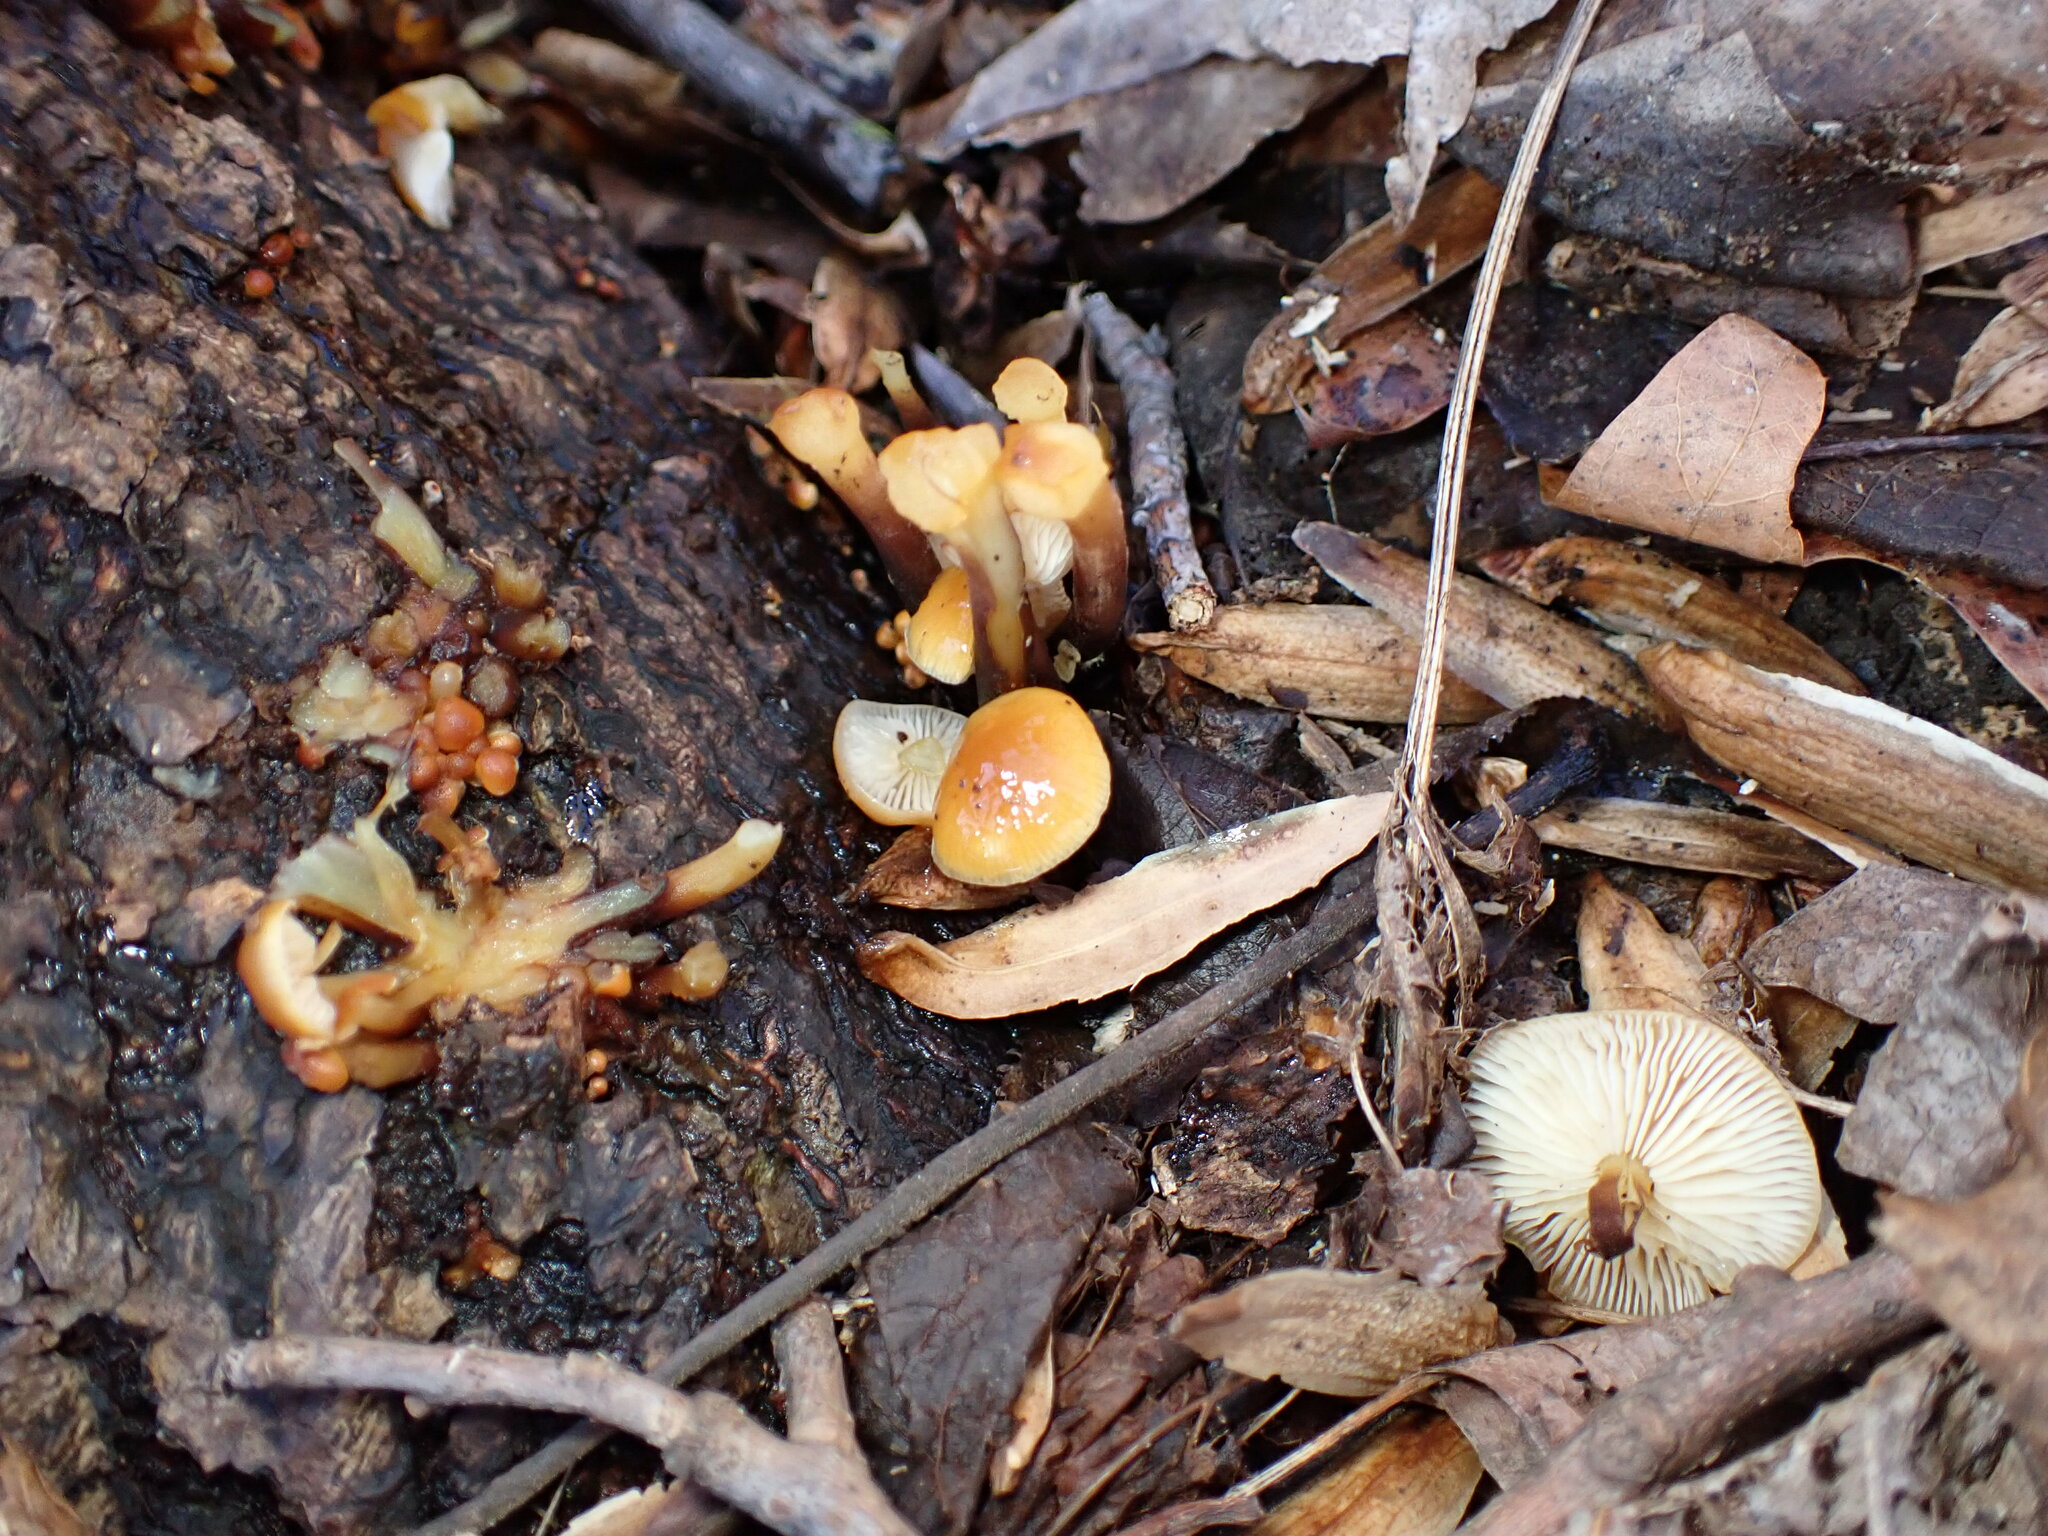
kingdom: Fungi
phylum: Basidiomycota
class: Agaricomycetes
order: Agaricales
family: Physalacriaceae
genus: Flammulina
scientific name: Flammulina velutipes
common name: Velvet shank
